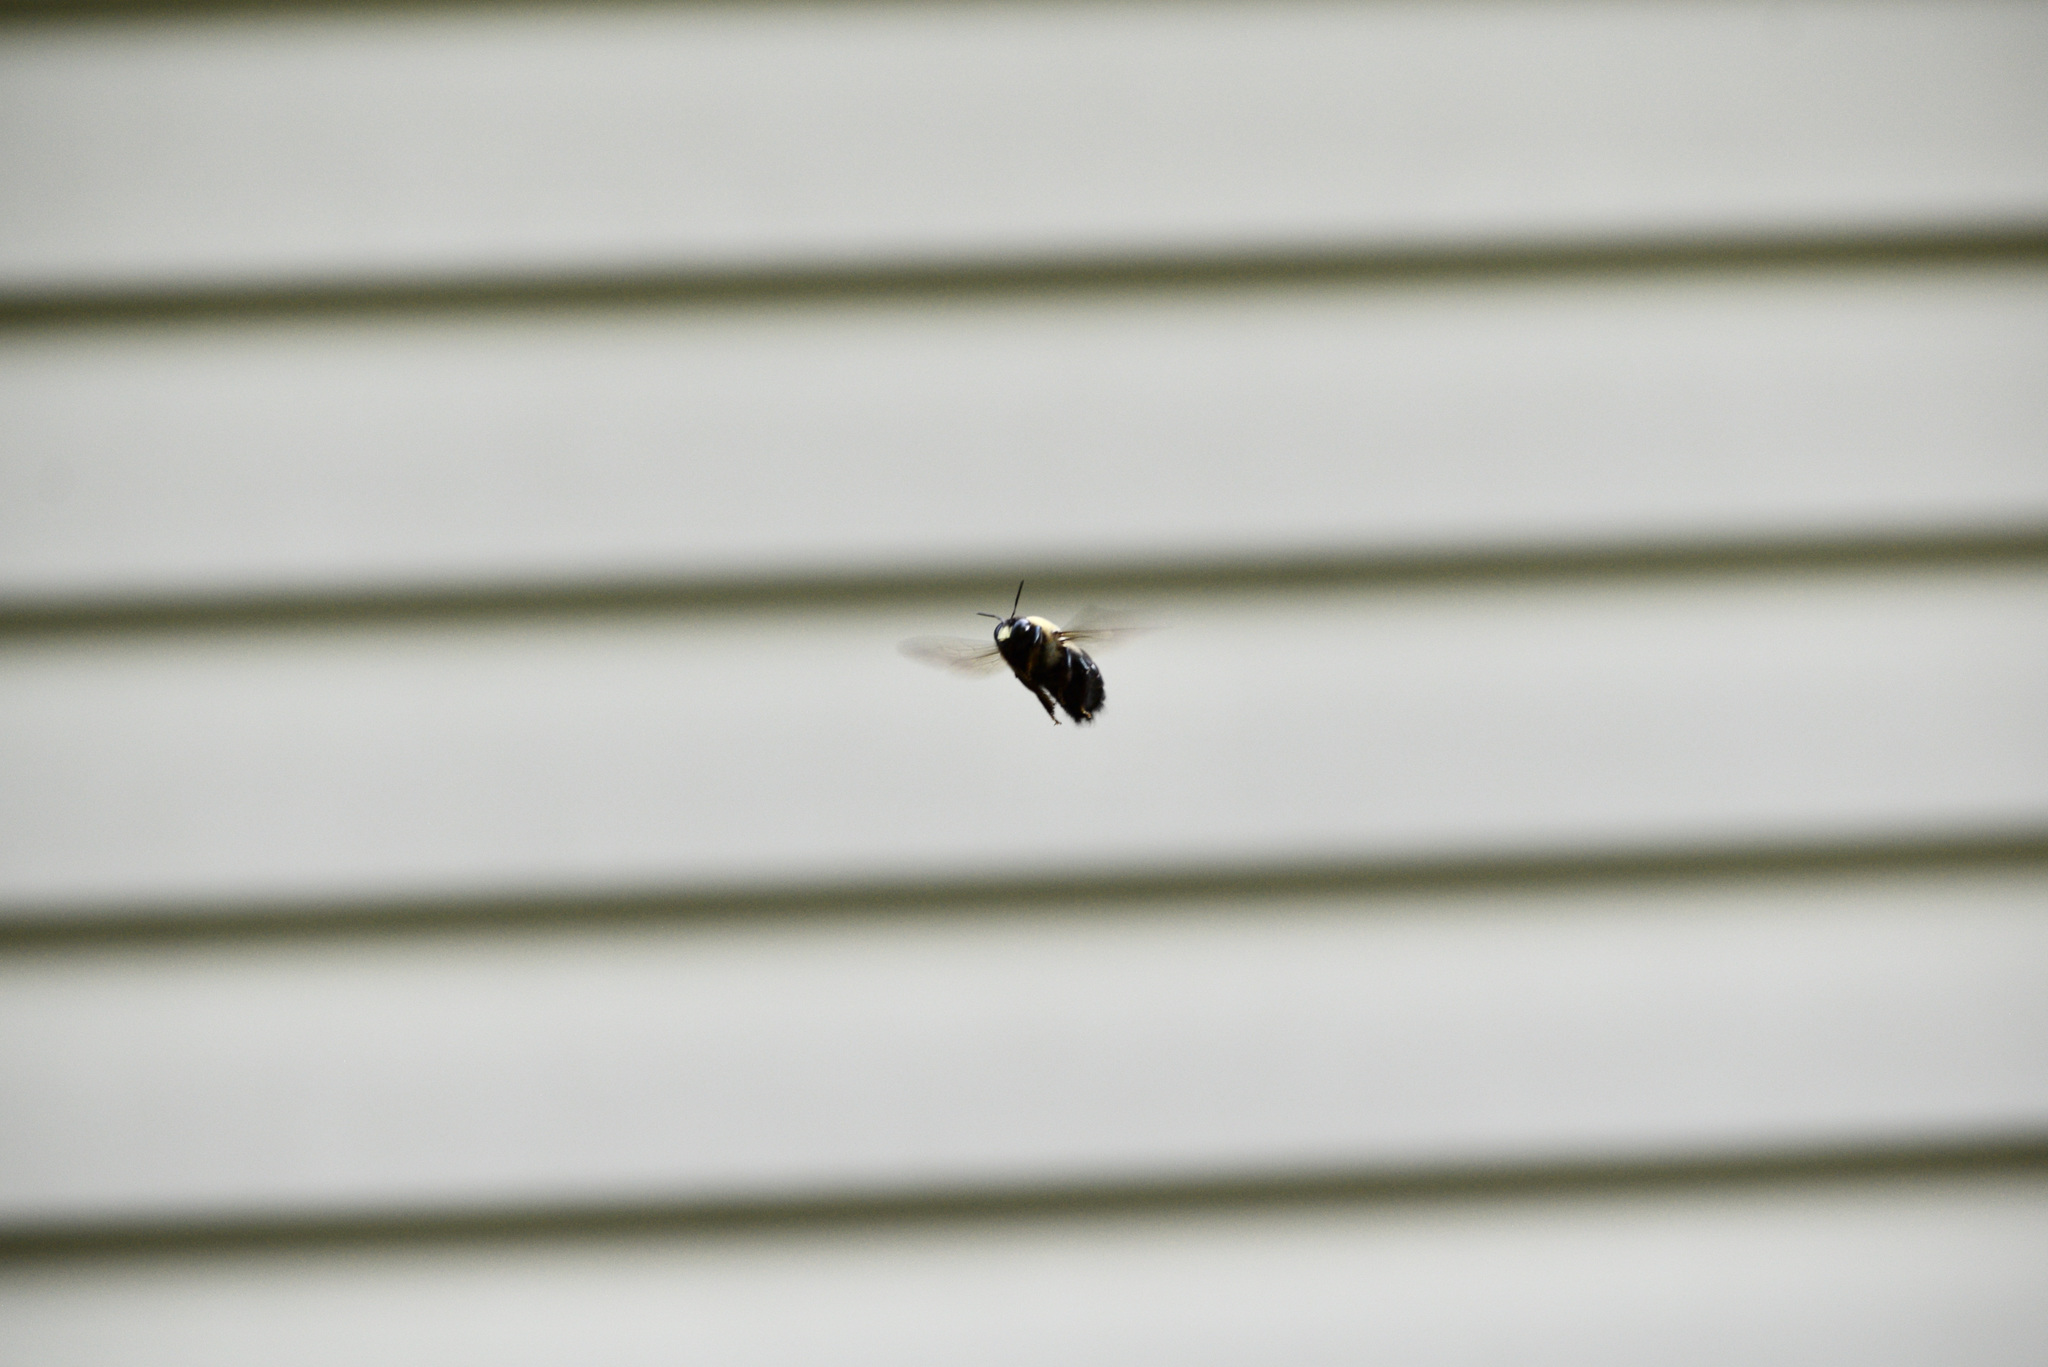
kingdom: Animalia
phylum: Arthropoda
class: Insecta
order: Hymenoptera
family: Apidae
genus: Xylocopa
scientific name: Xylocopa virginica
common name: Carpenter bee
